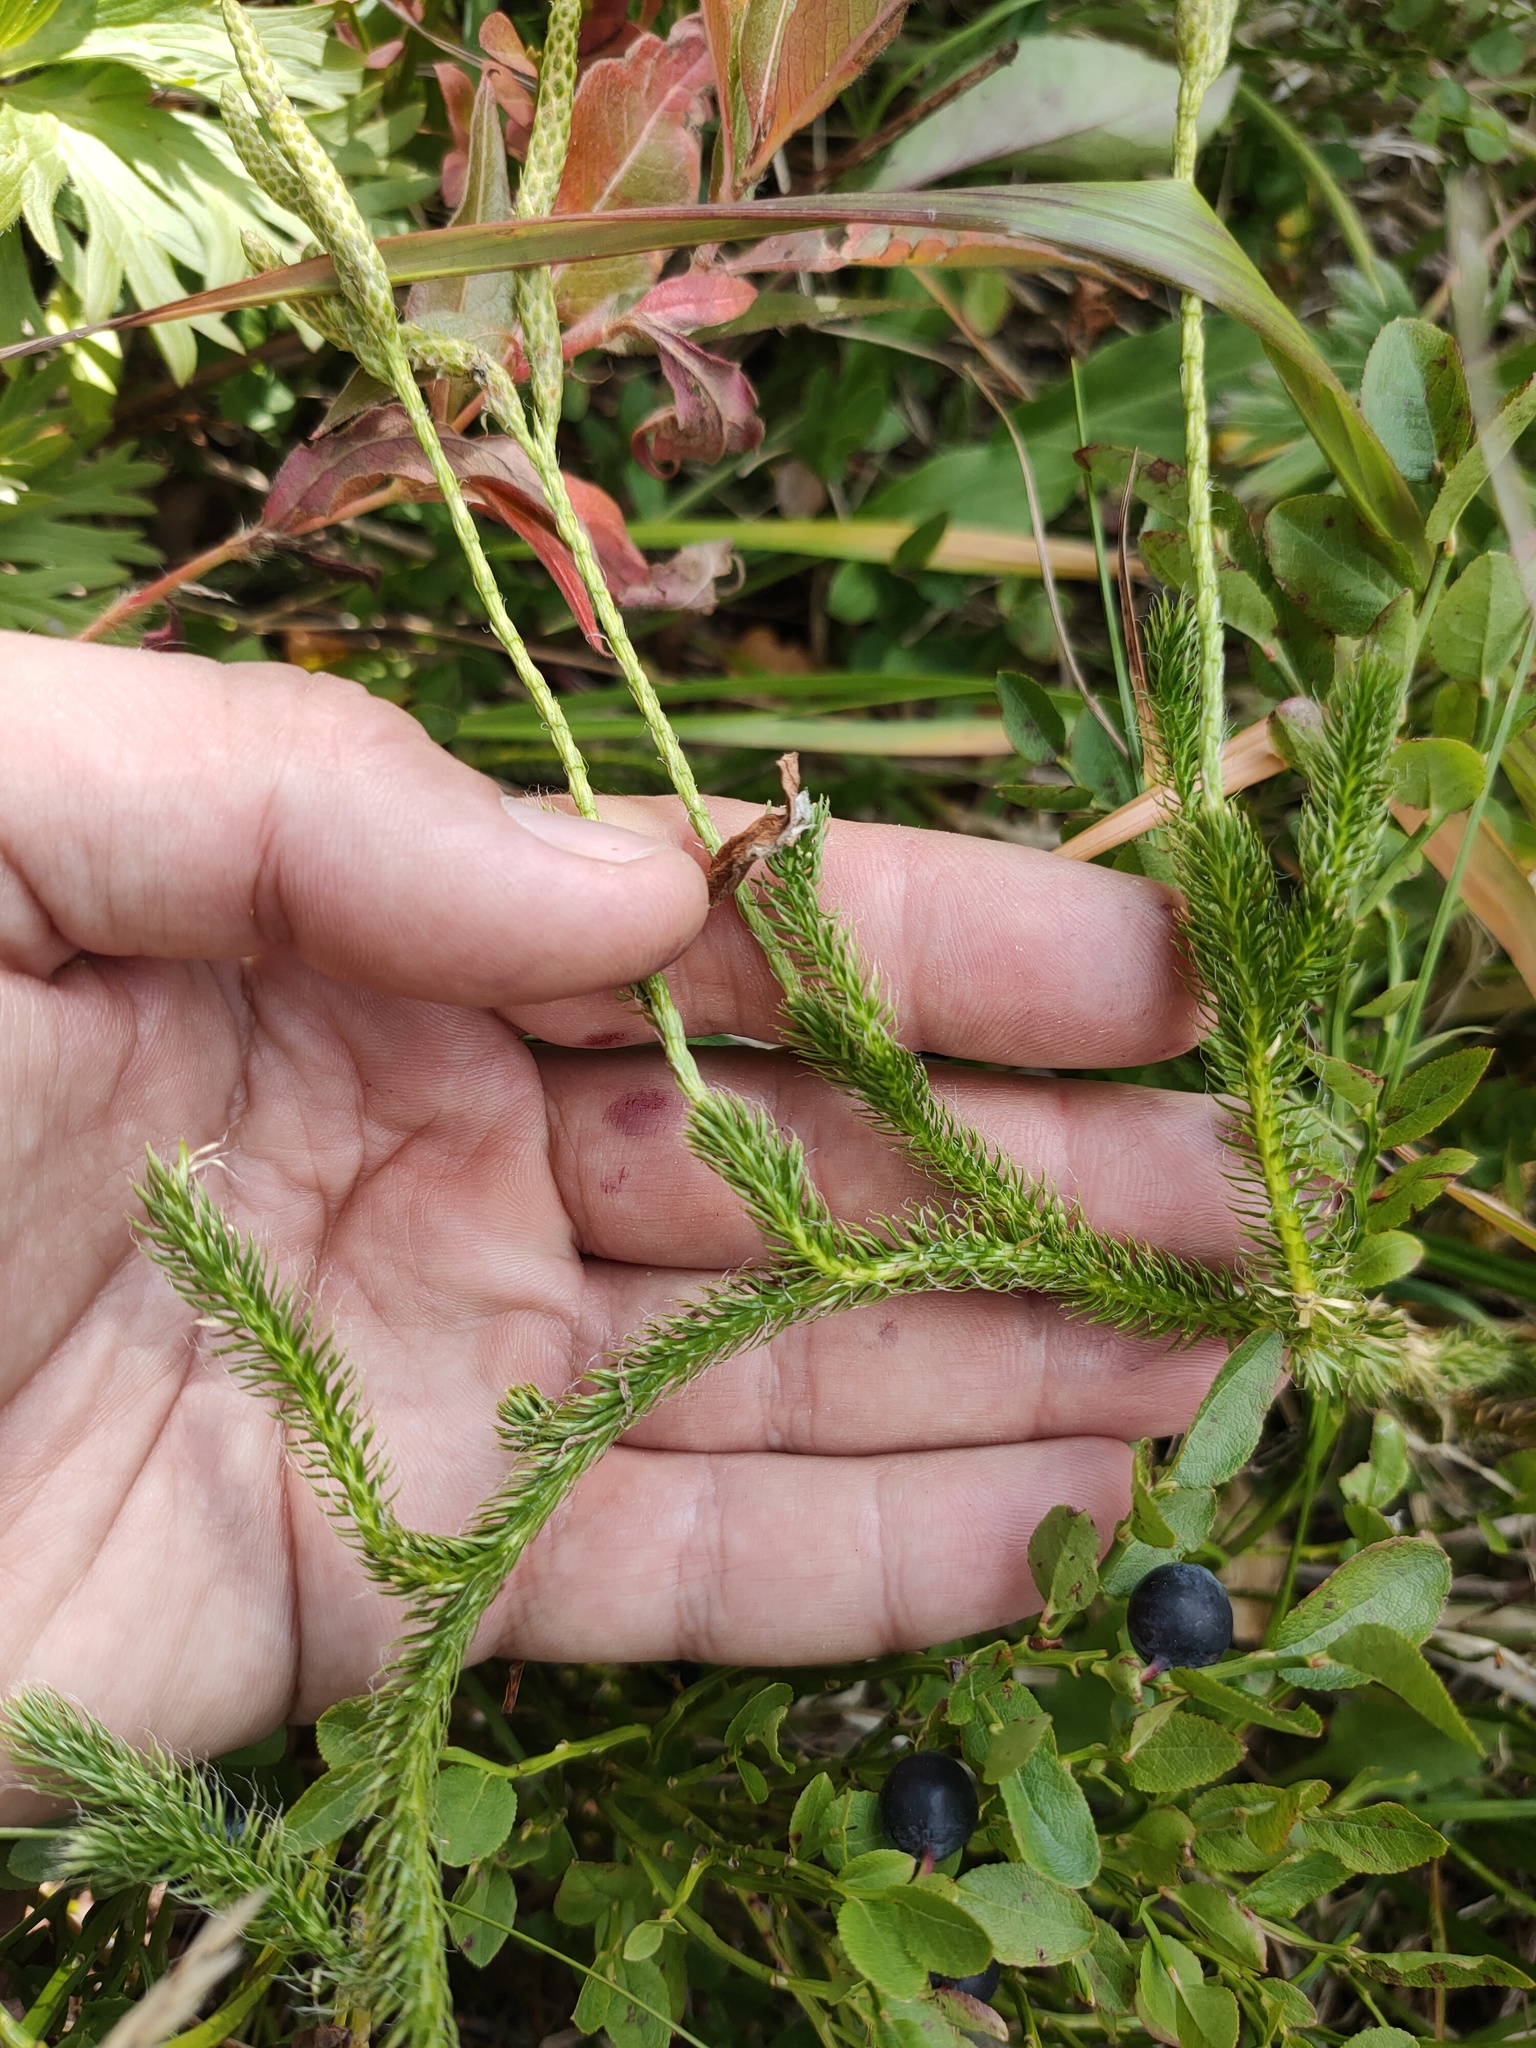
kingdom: Plantae
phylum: Tracheophyta
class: Lycopodiopsida
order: Lycopodiales
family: Lycopodiaceae
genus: Lycopodium
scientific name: Lycopodium clavatum
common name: Stag's-horn clubmoss
